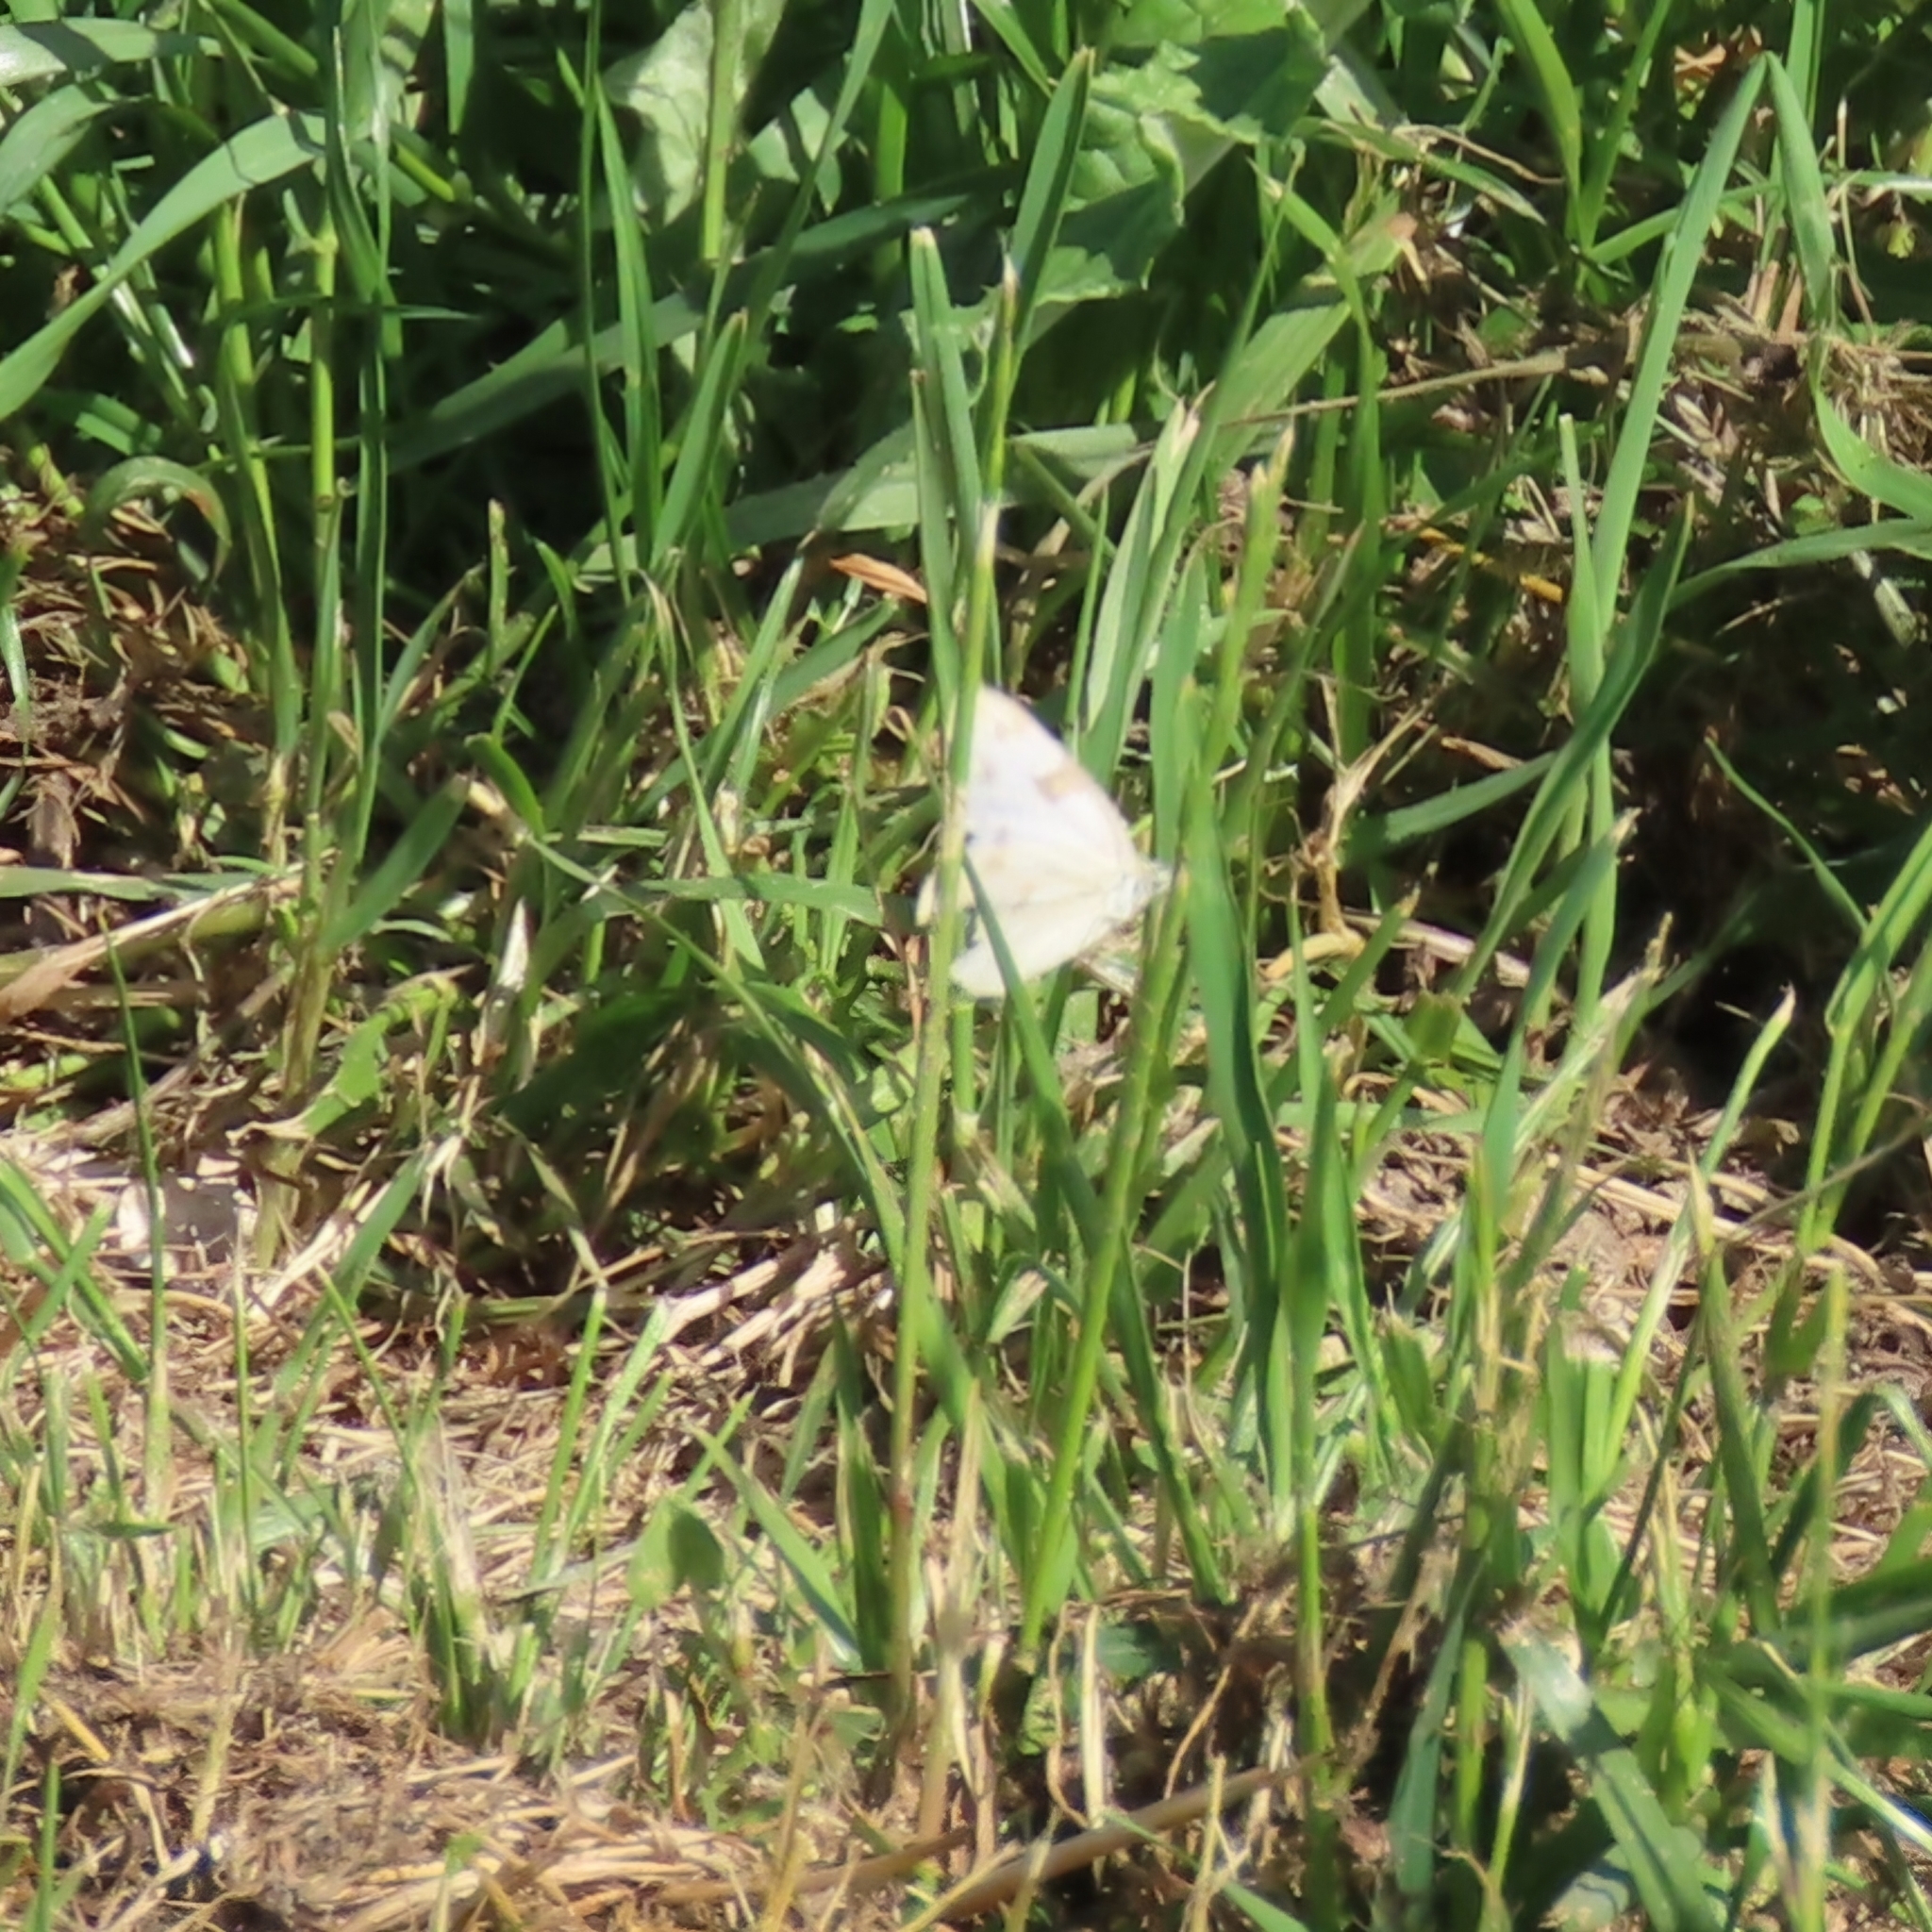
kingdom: Animalia
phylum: Arthropoda
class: Insecta
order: Lepidoptera
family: Pieridae
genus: Pontia
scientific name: Pontia protodice
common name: Checkered white
